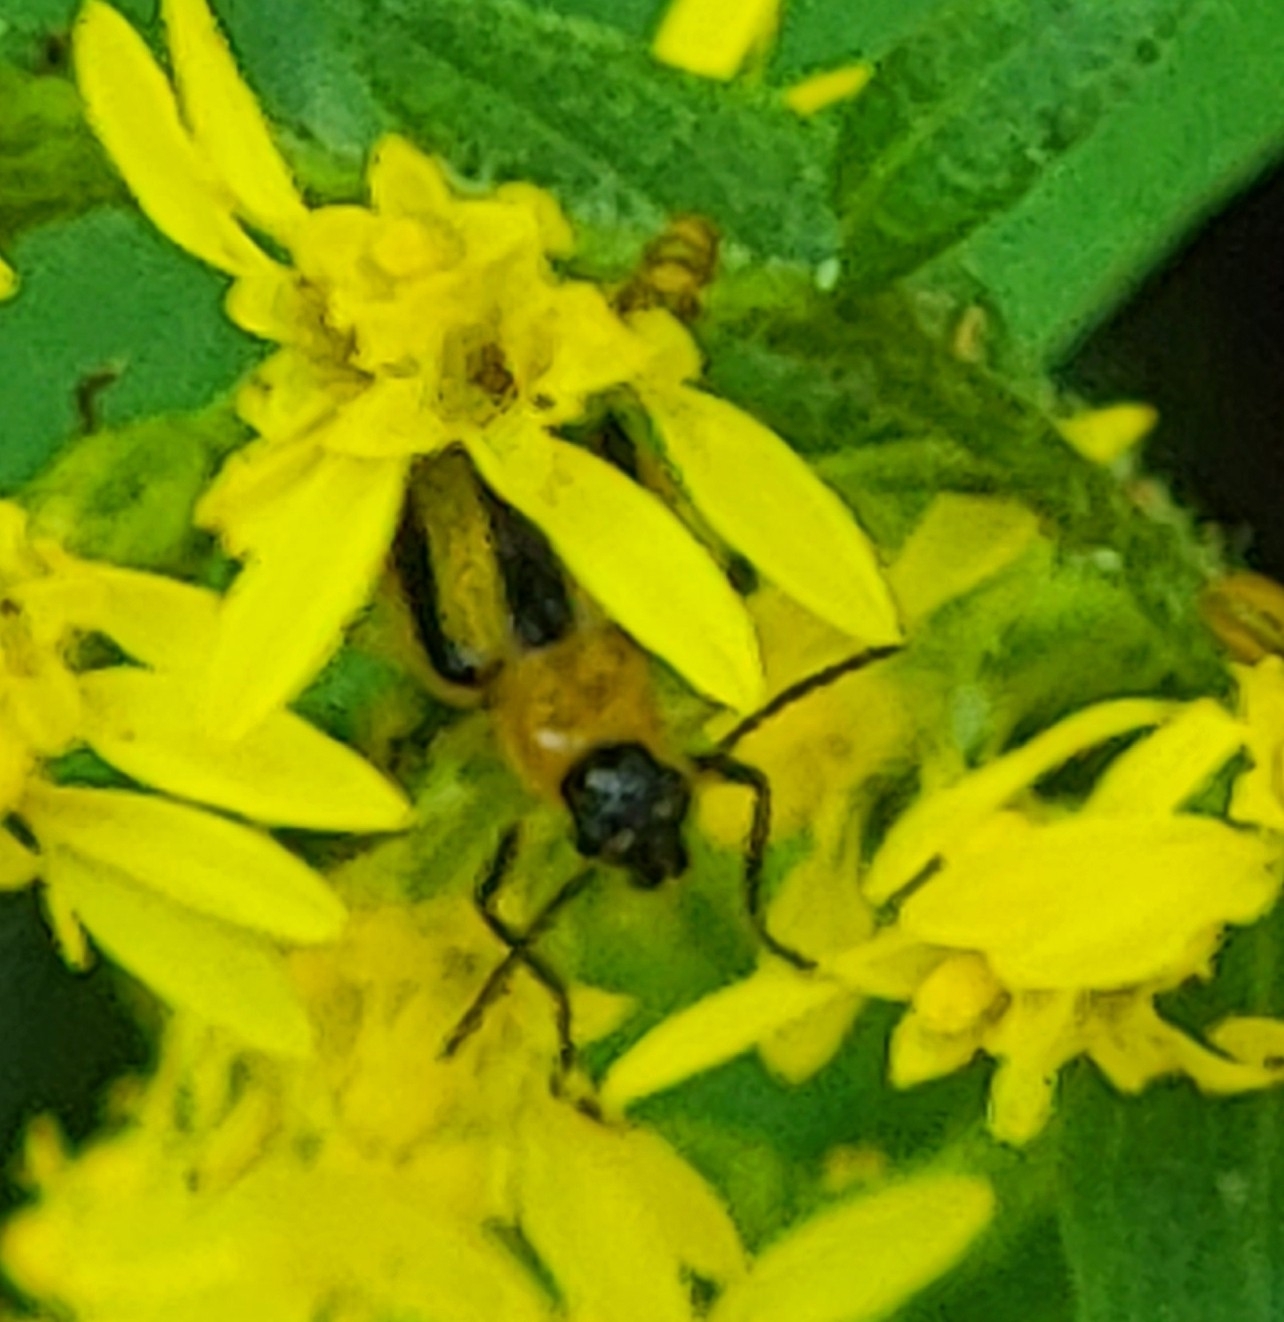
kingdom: Animalia
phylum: Arthropoda
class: Insecta
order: Coleoptera
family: Chrysomelidae
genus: Acalymma
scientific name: Acalymma vittatum
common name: Striped cucumber beetle
